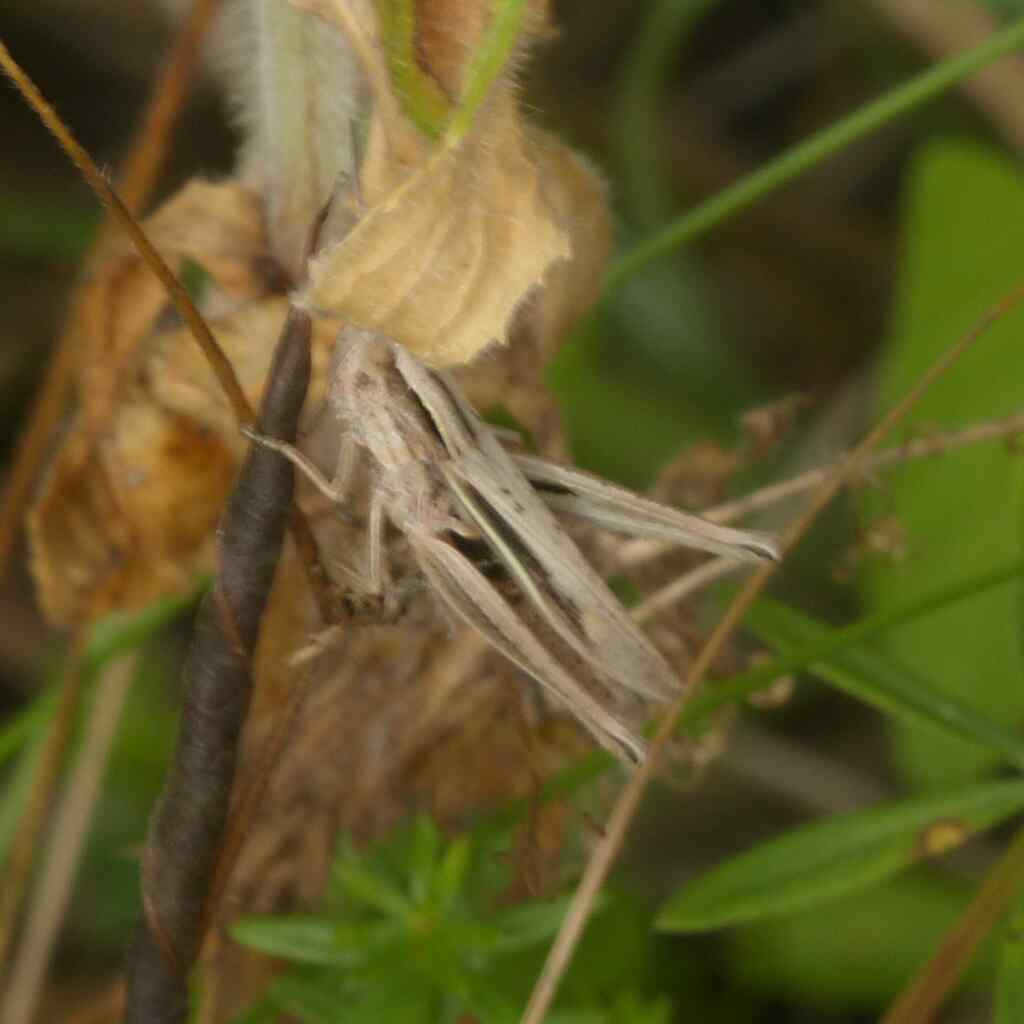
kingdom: Animalia
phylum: Arthropoda
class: Insecta
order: Orthoptera
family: Acrididae
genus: Chorthippus
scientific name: Chorthippus albomarginatus
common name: Lesser marsh grasshopper
